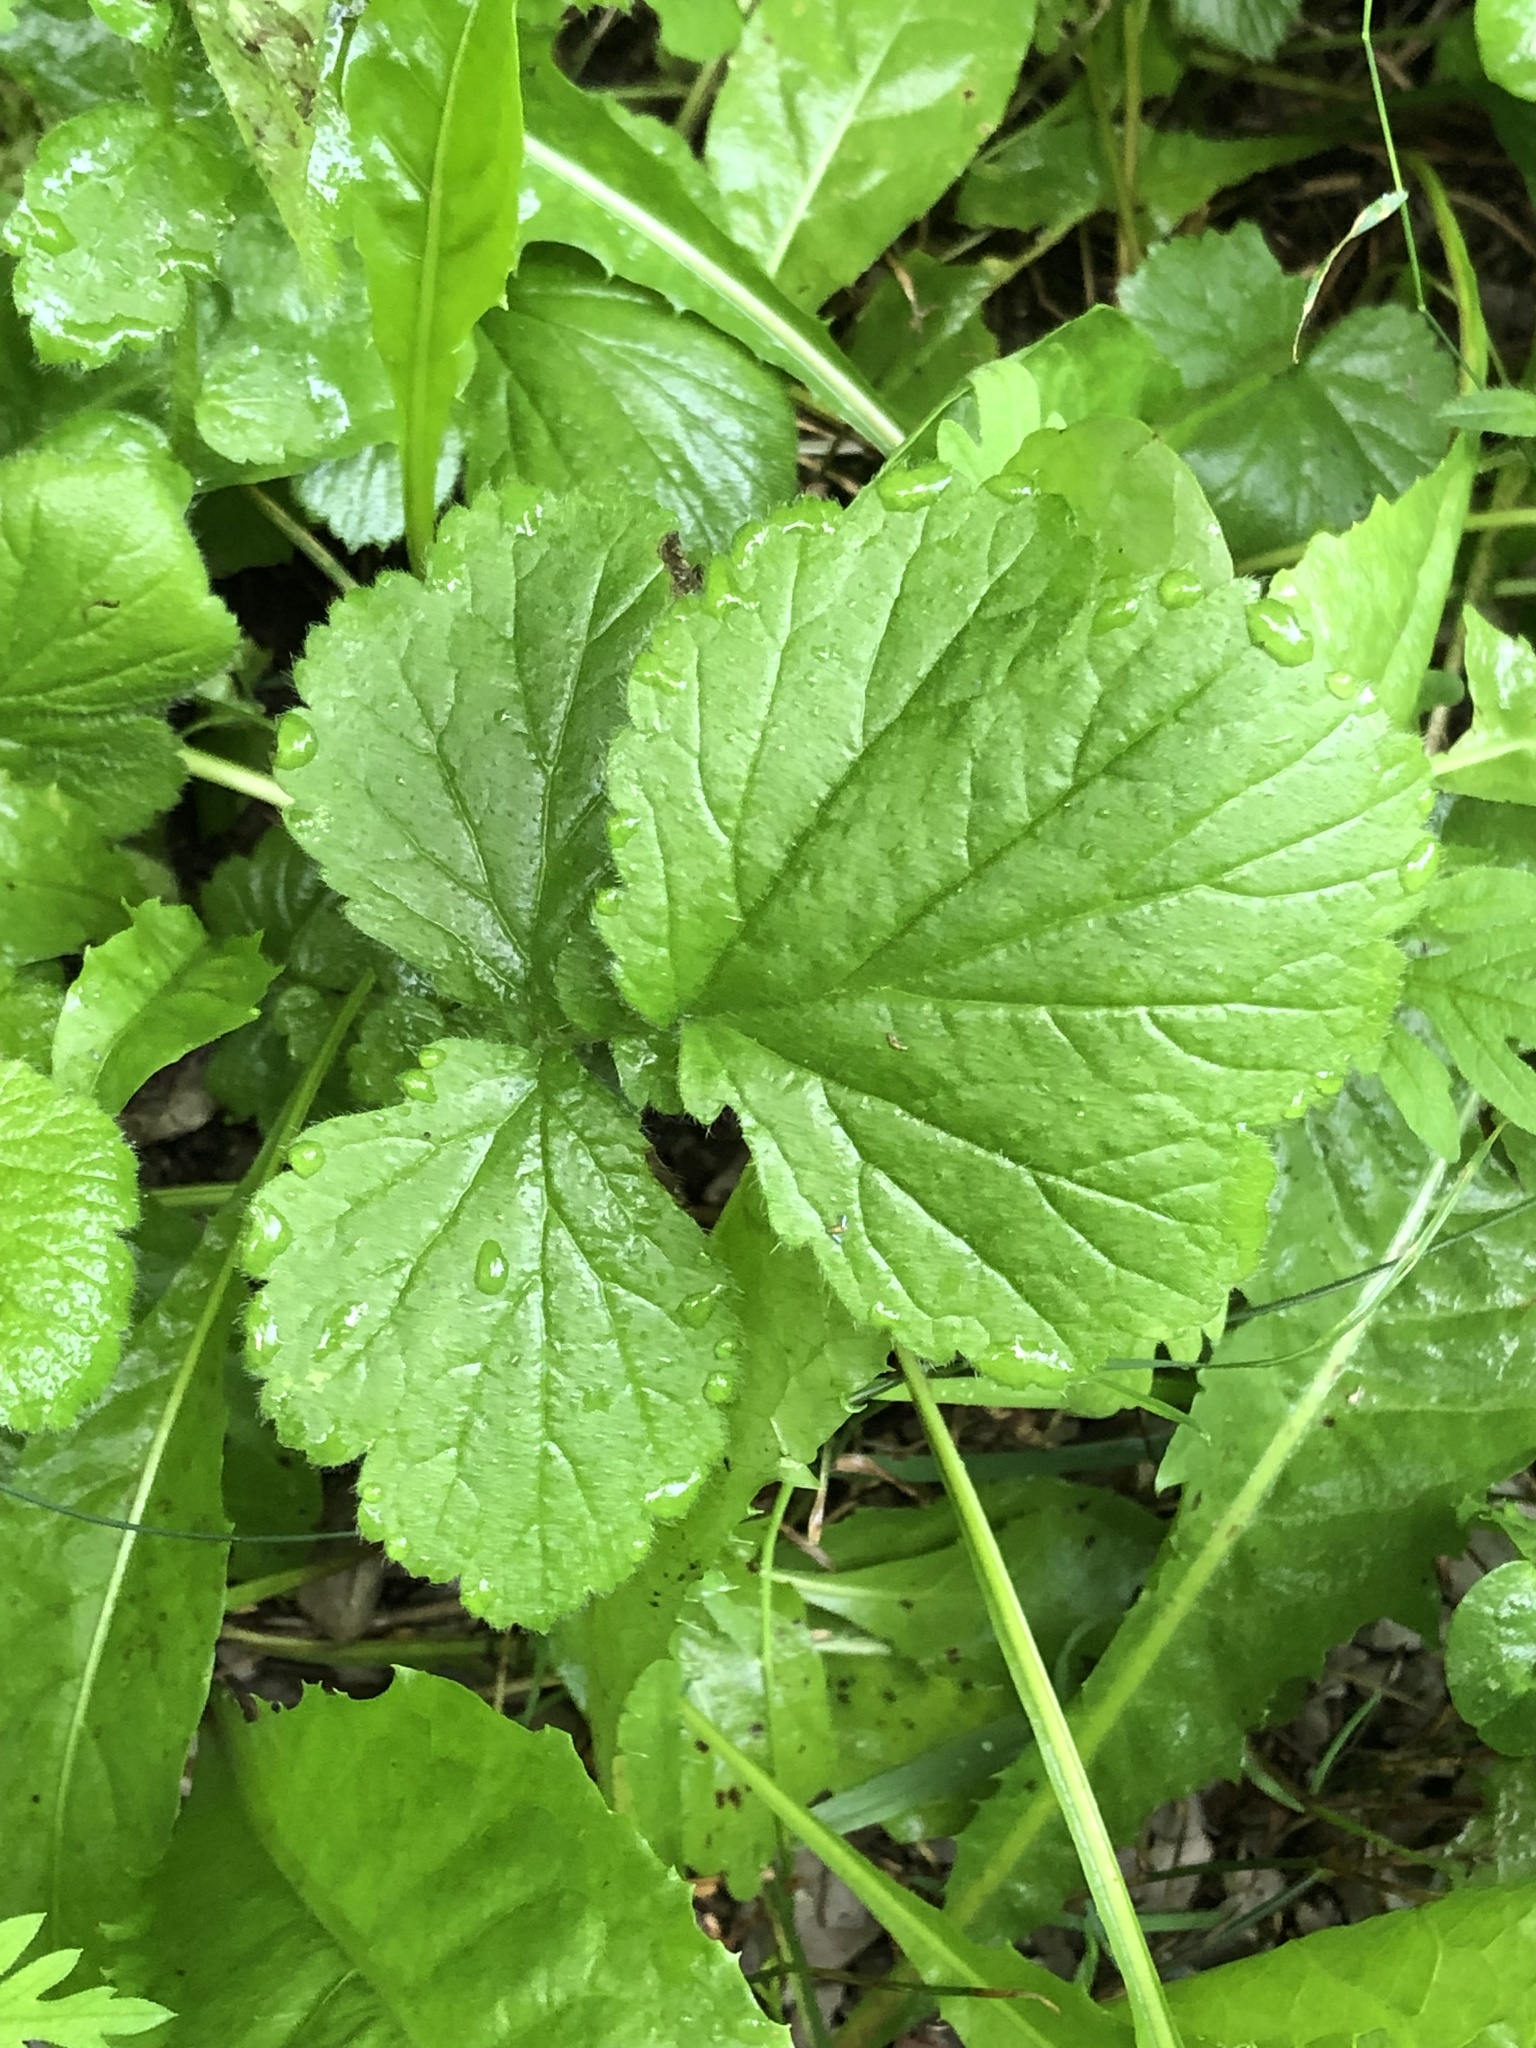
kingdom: Plantae
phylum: Tracheophyta
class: Magnoliopsida
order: Rosales
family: Rosaceae
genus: Geum
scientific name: Geum urbanum
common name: Wood avens
